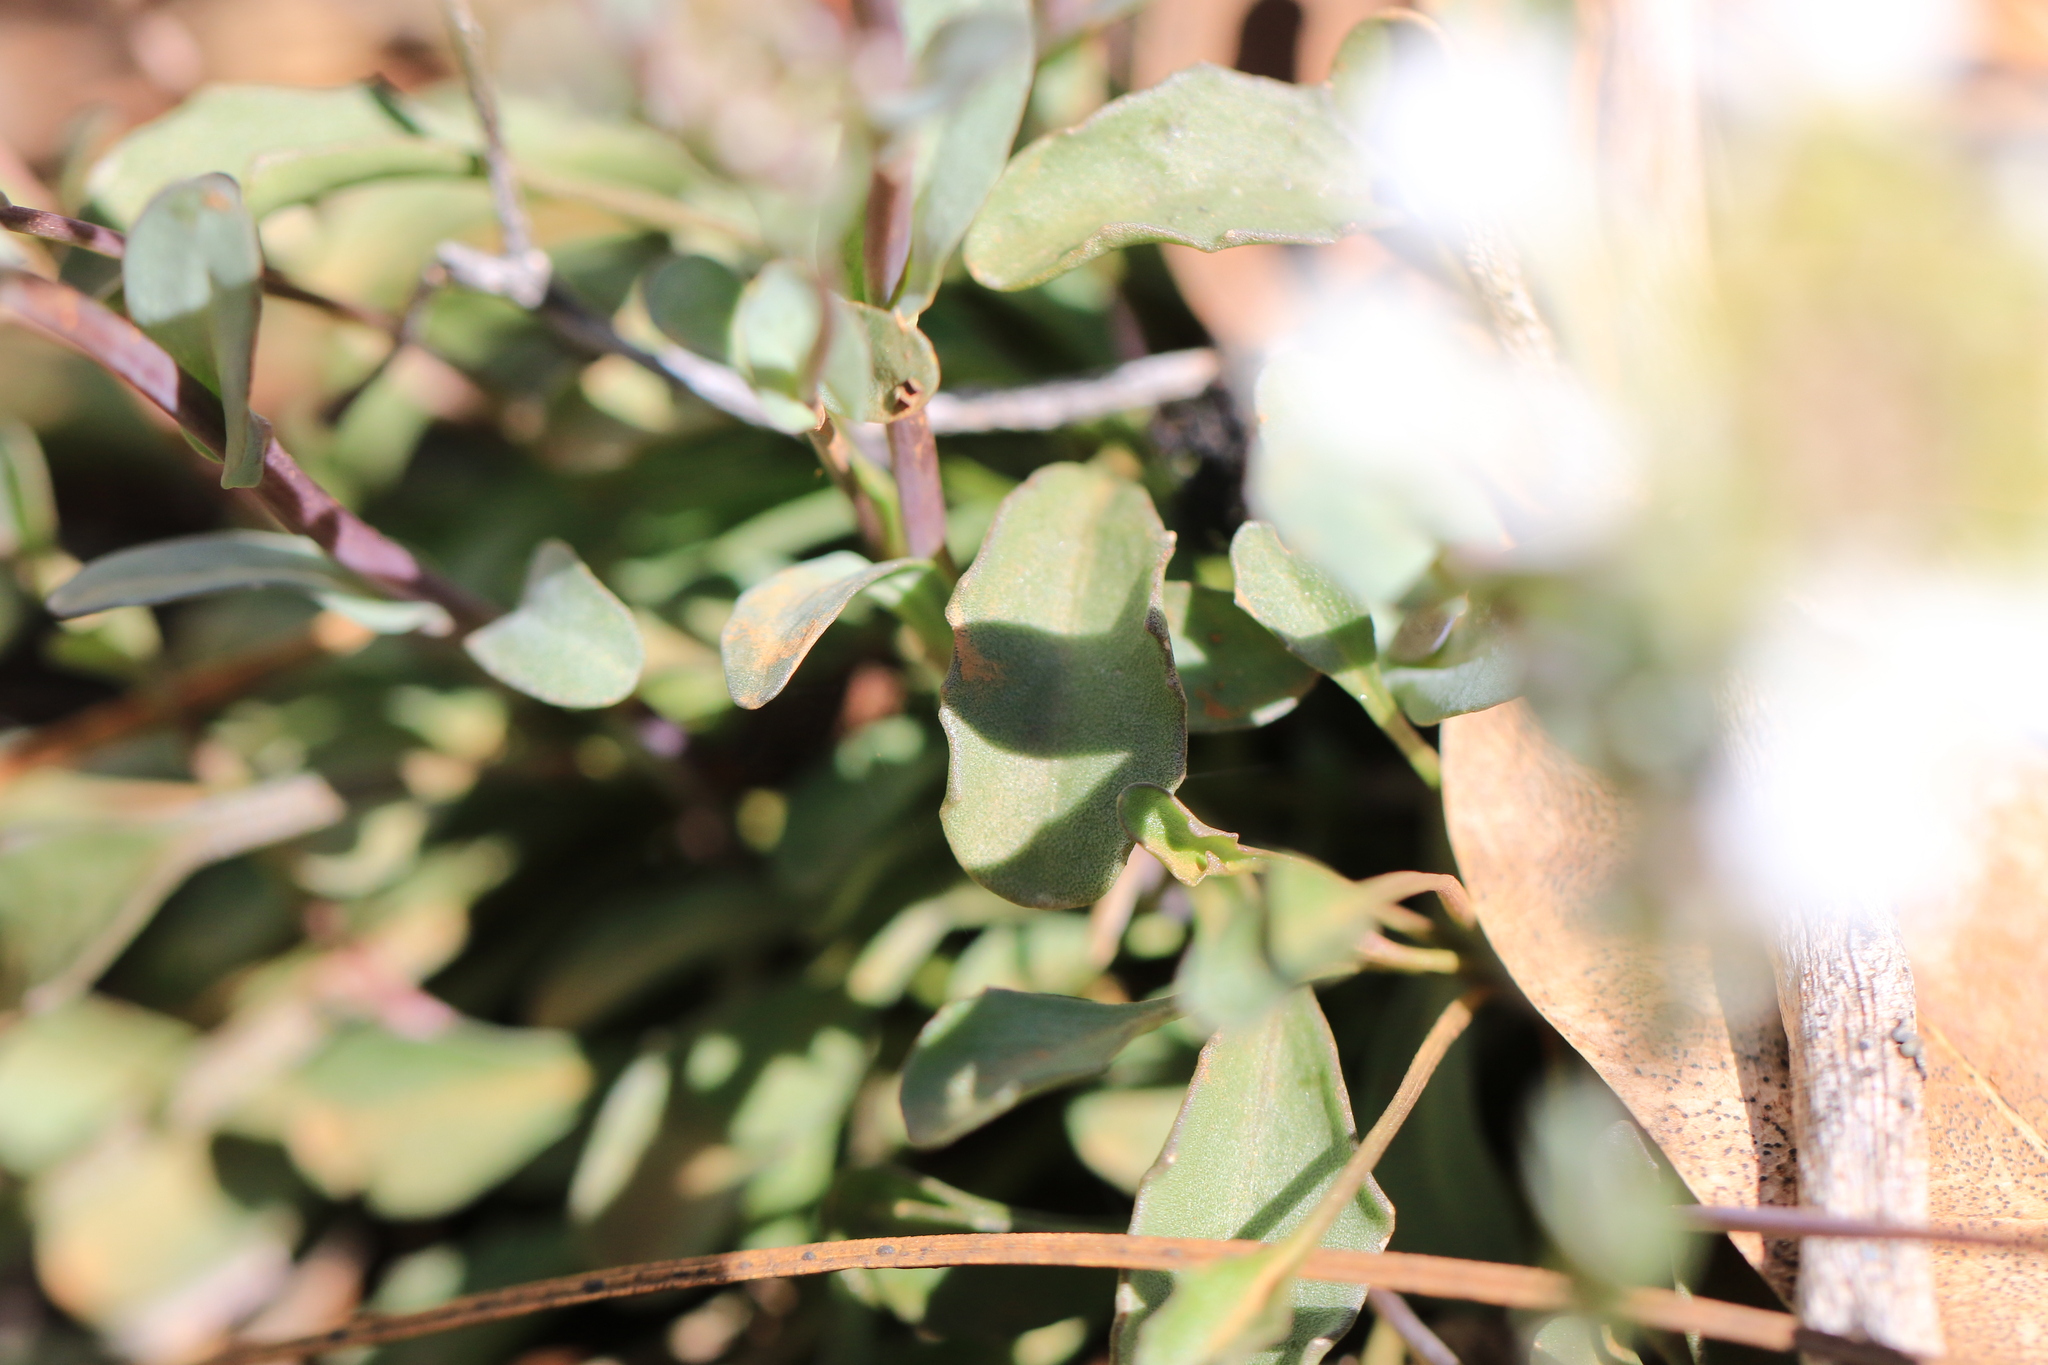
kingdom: Plantae
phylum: Tracheophyta
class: Magnoliopsida
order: Brassicales
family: Brassicaceae
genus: Noccaea
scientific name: Noccaea fendleri
